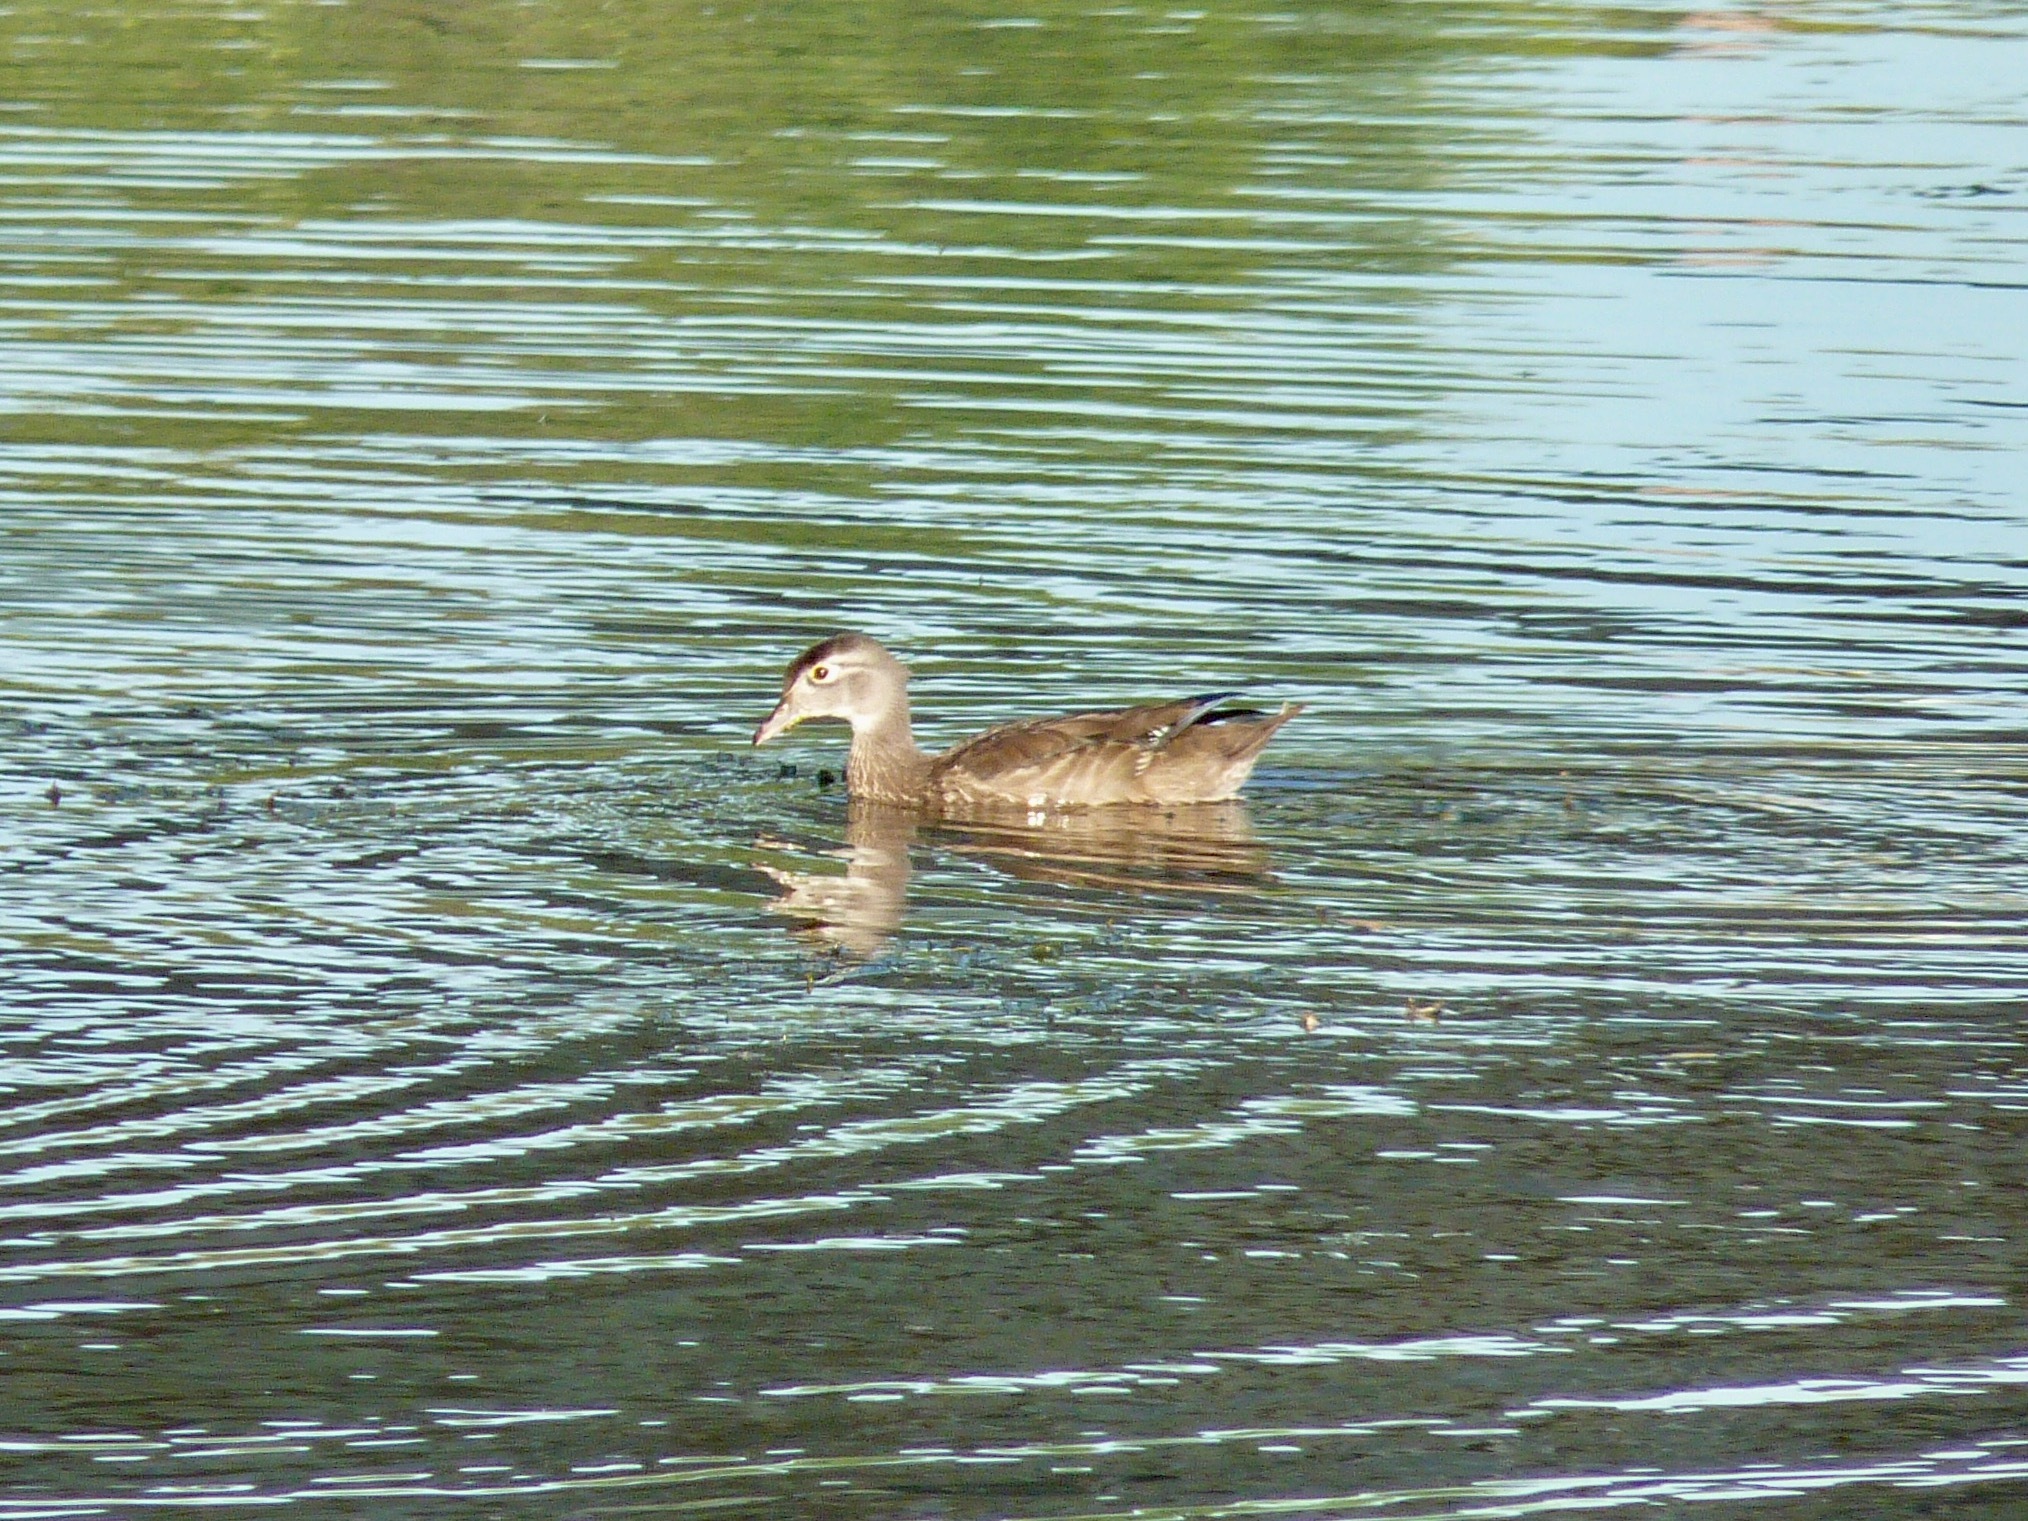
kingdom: Animalia
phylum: Chordata
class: Aves
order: Anseriformes
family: Anatidae
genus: Aix
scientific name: Aix sponsa
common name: Wood duck
